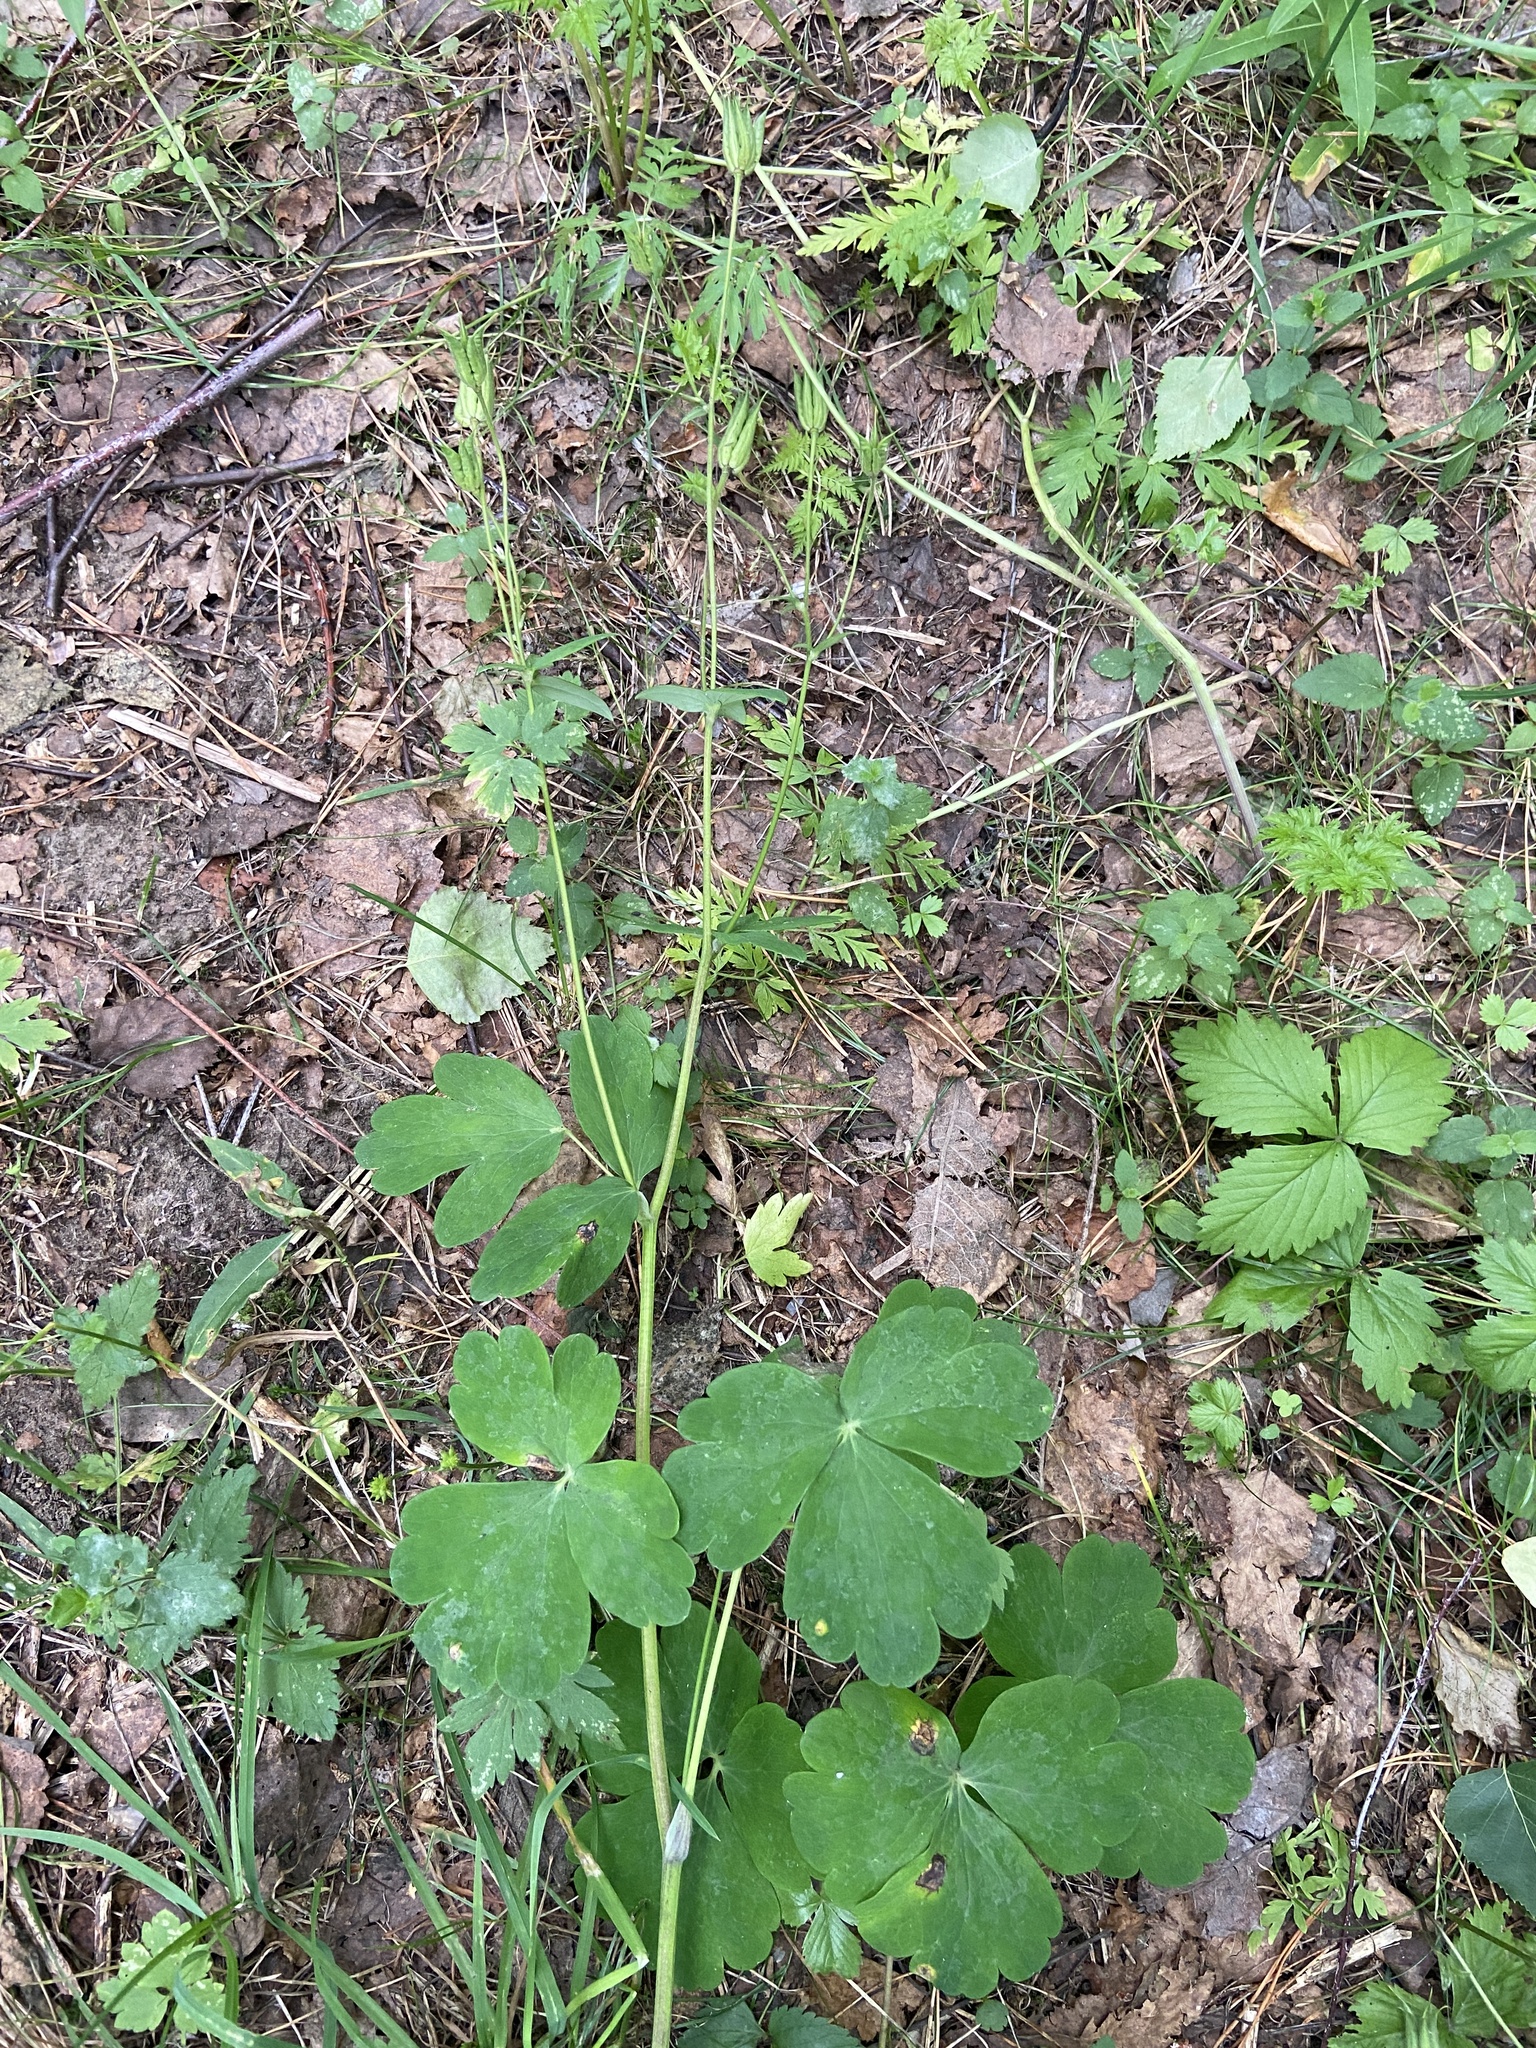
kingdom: Plantae
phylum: Tracheophyta
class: Magnoliopsida
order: Ranunculales
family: Ranunculaceae
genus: Aquilegia
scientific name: Aquilegia vulgaris
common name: Columbine
